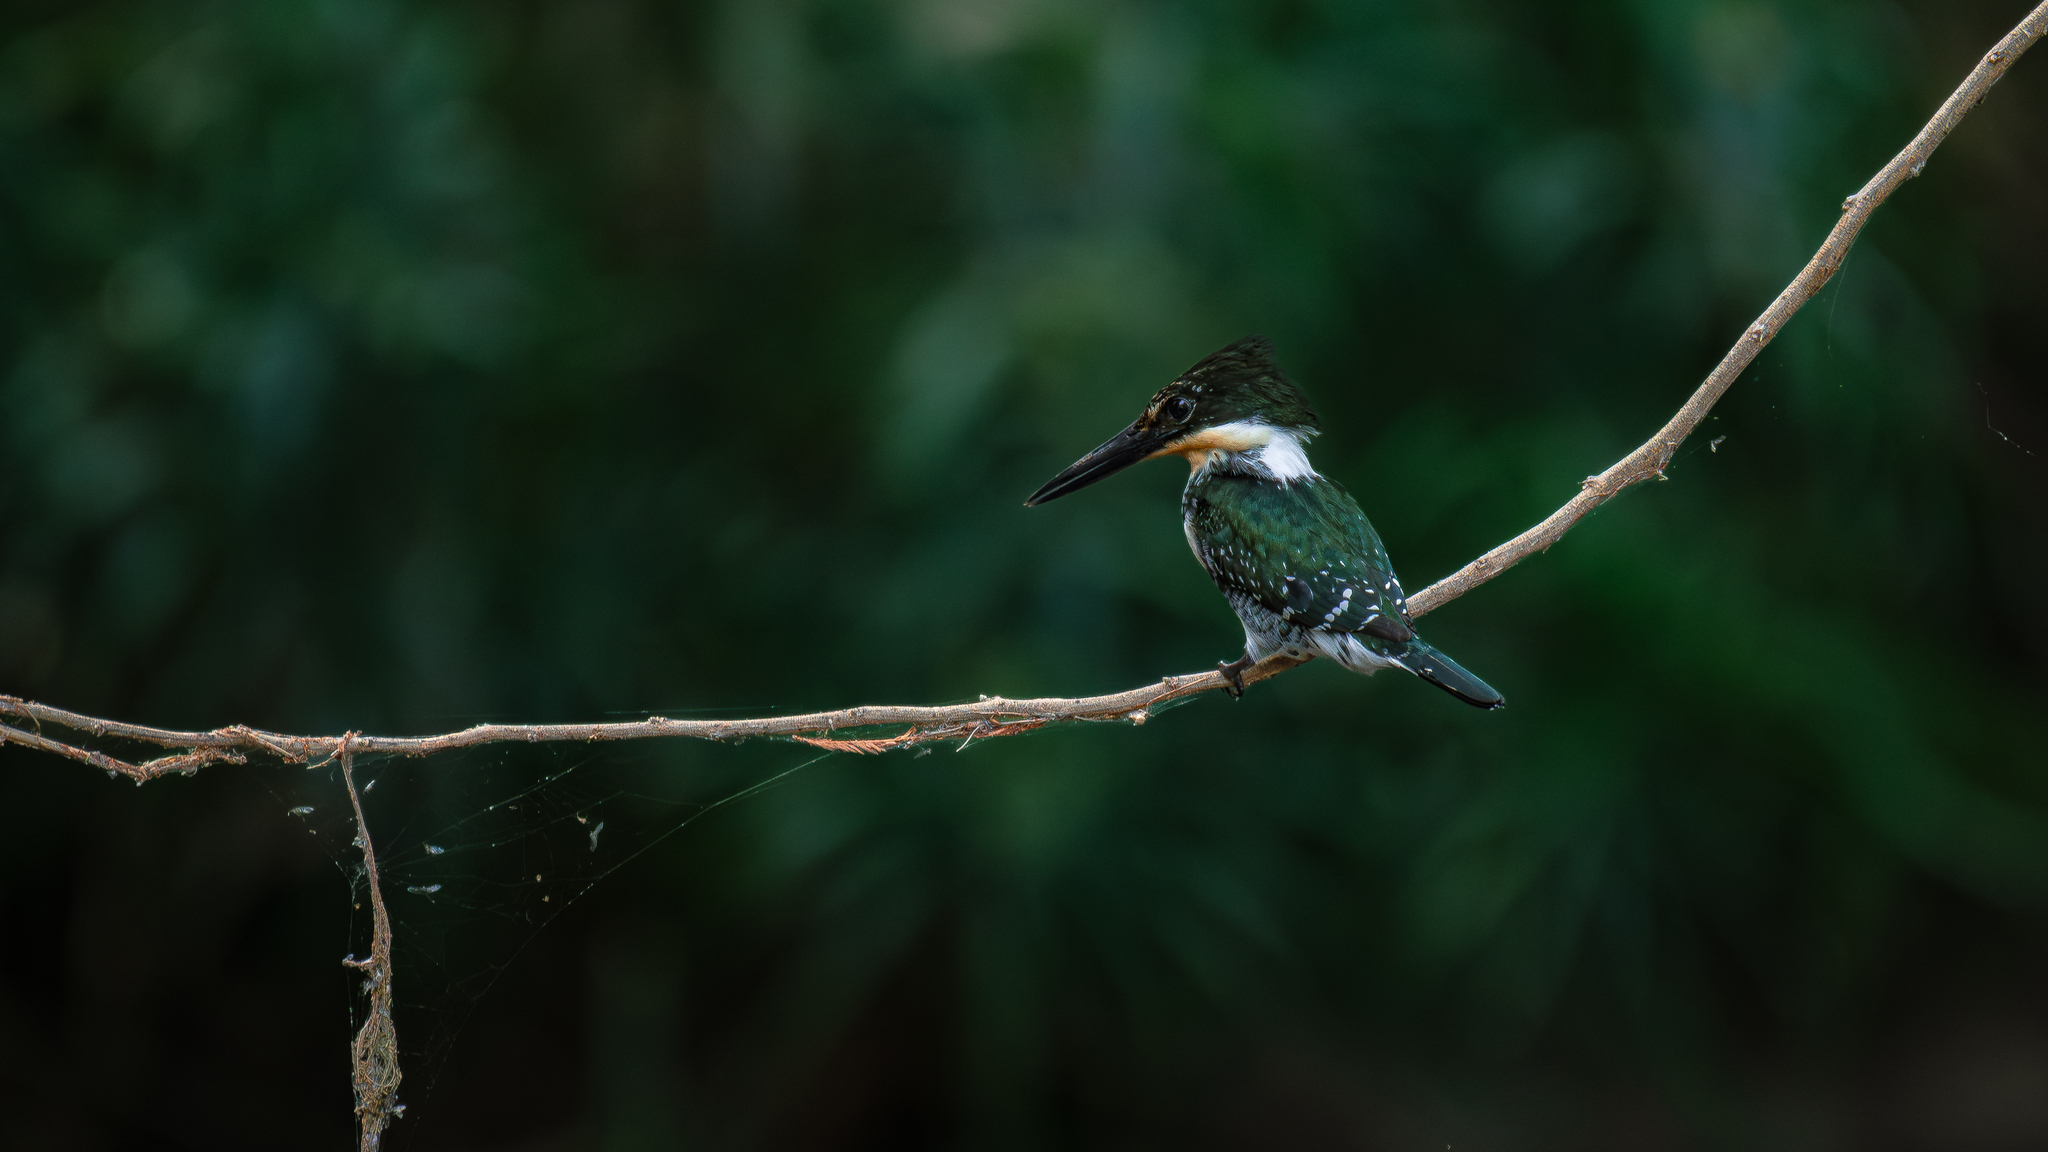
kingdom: Animalia
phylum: Chordata
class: Aves
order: Coraciiformes
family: Alcedinidae
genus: Chloroceryle
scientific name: Chloroceryle americana
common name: Green kingfisher
